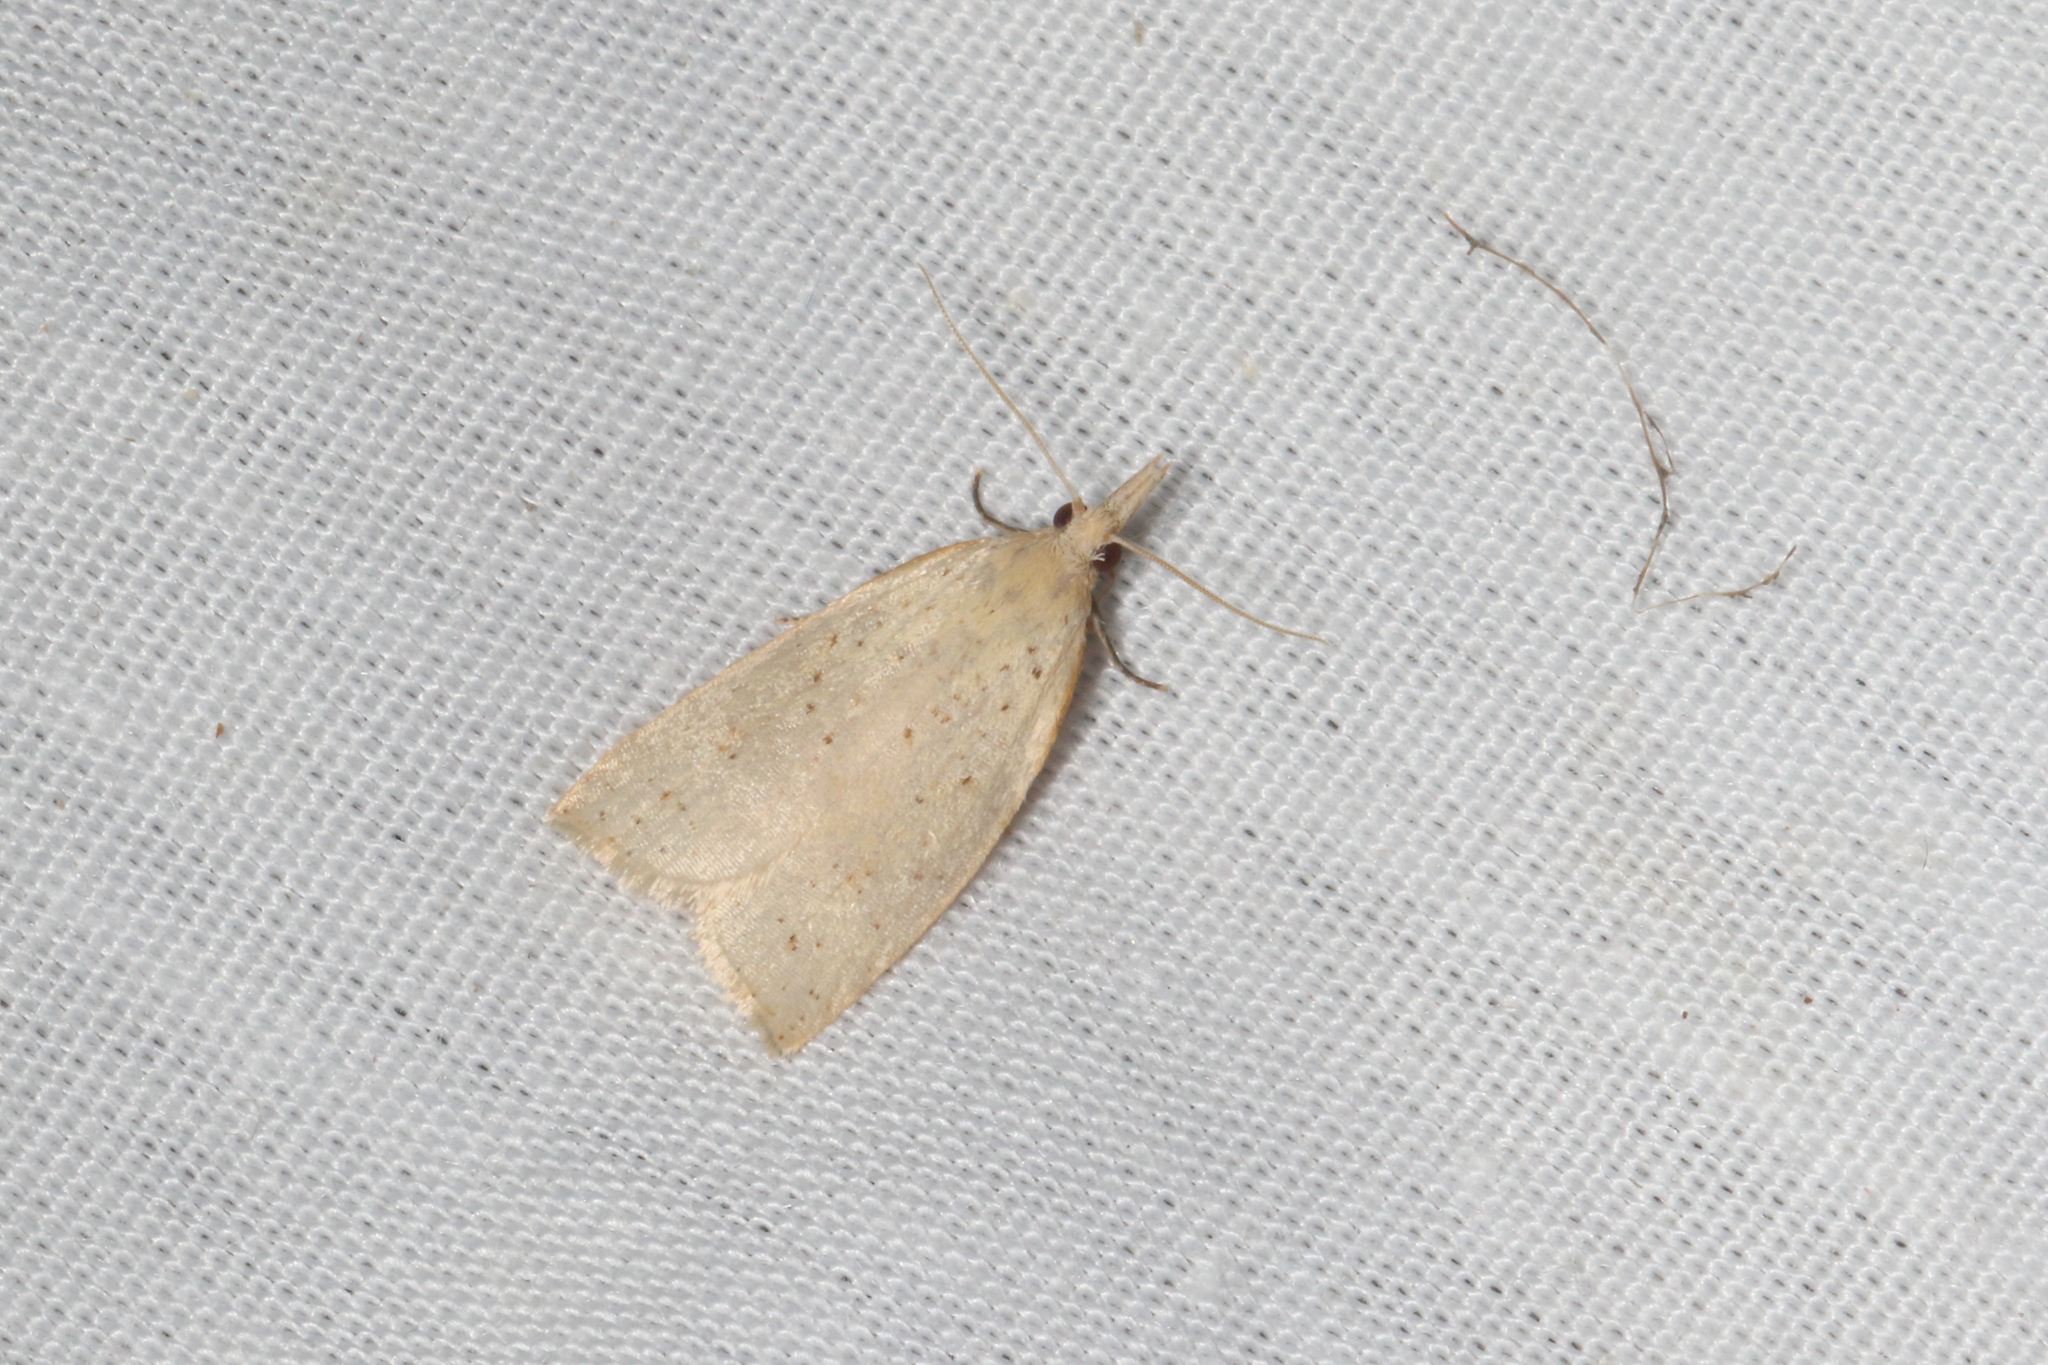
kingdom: Animalia
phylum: Arthropoda
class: Insecta
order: Lepidoptera
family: Tortricidae
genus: Catamacta
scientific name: Catamacta gavisana
